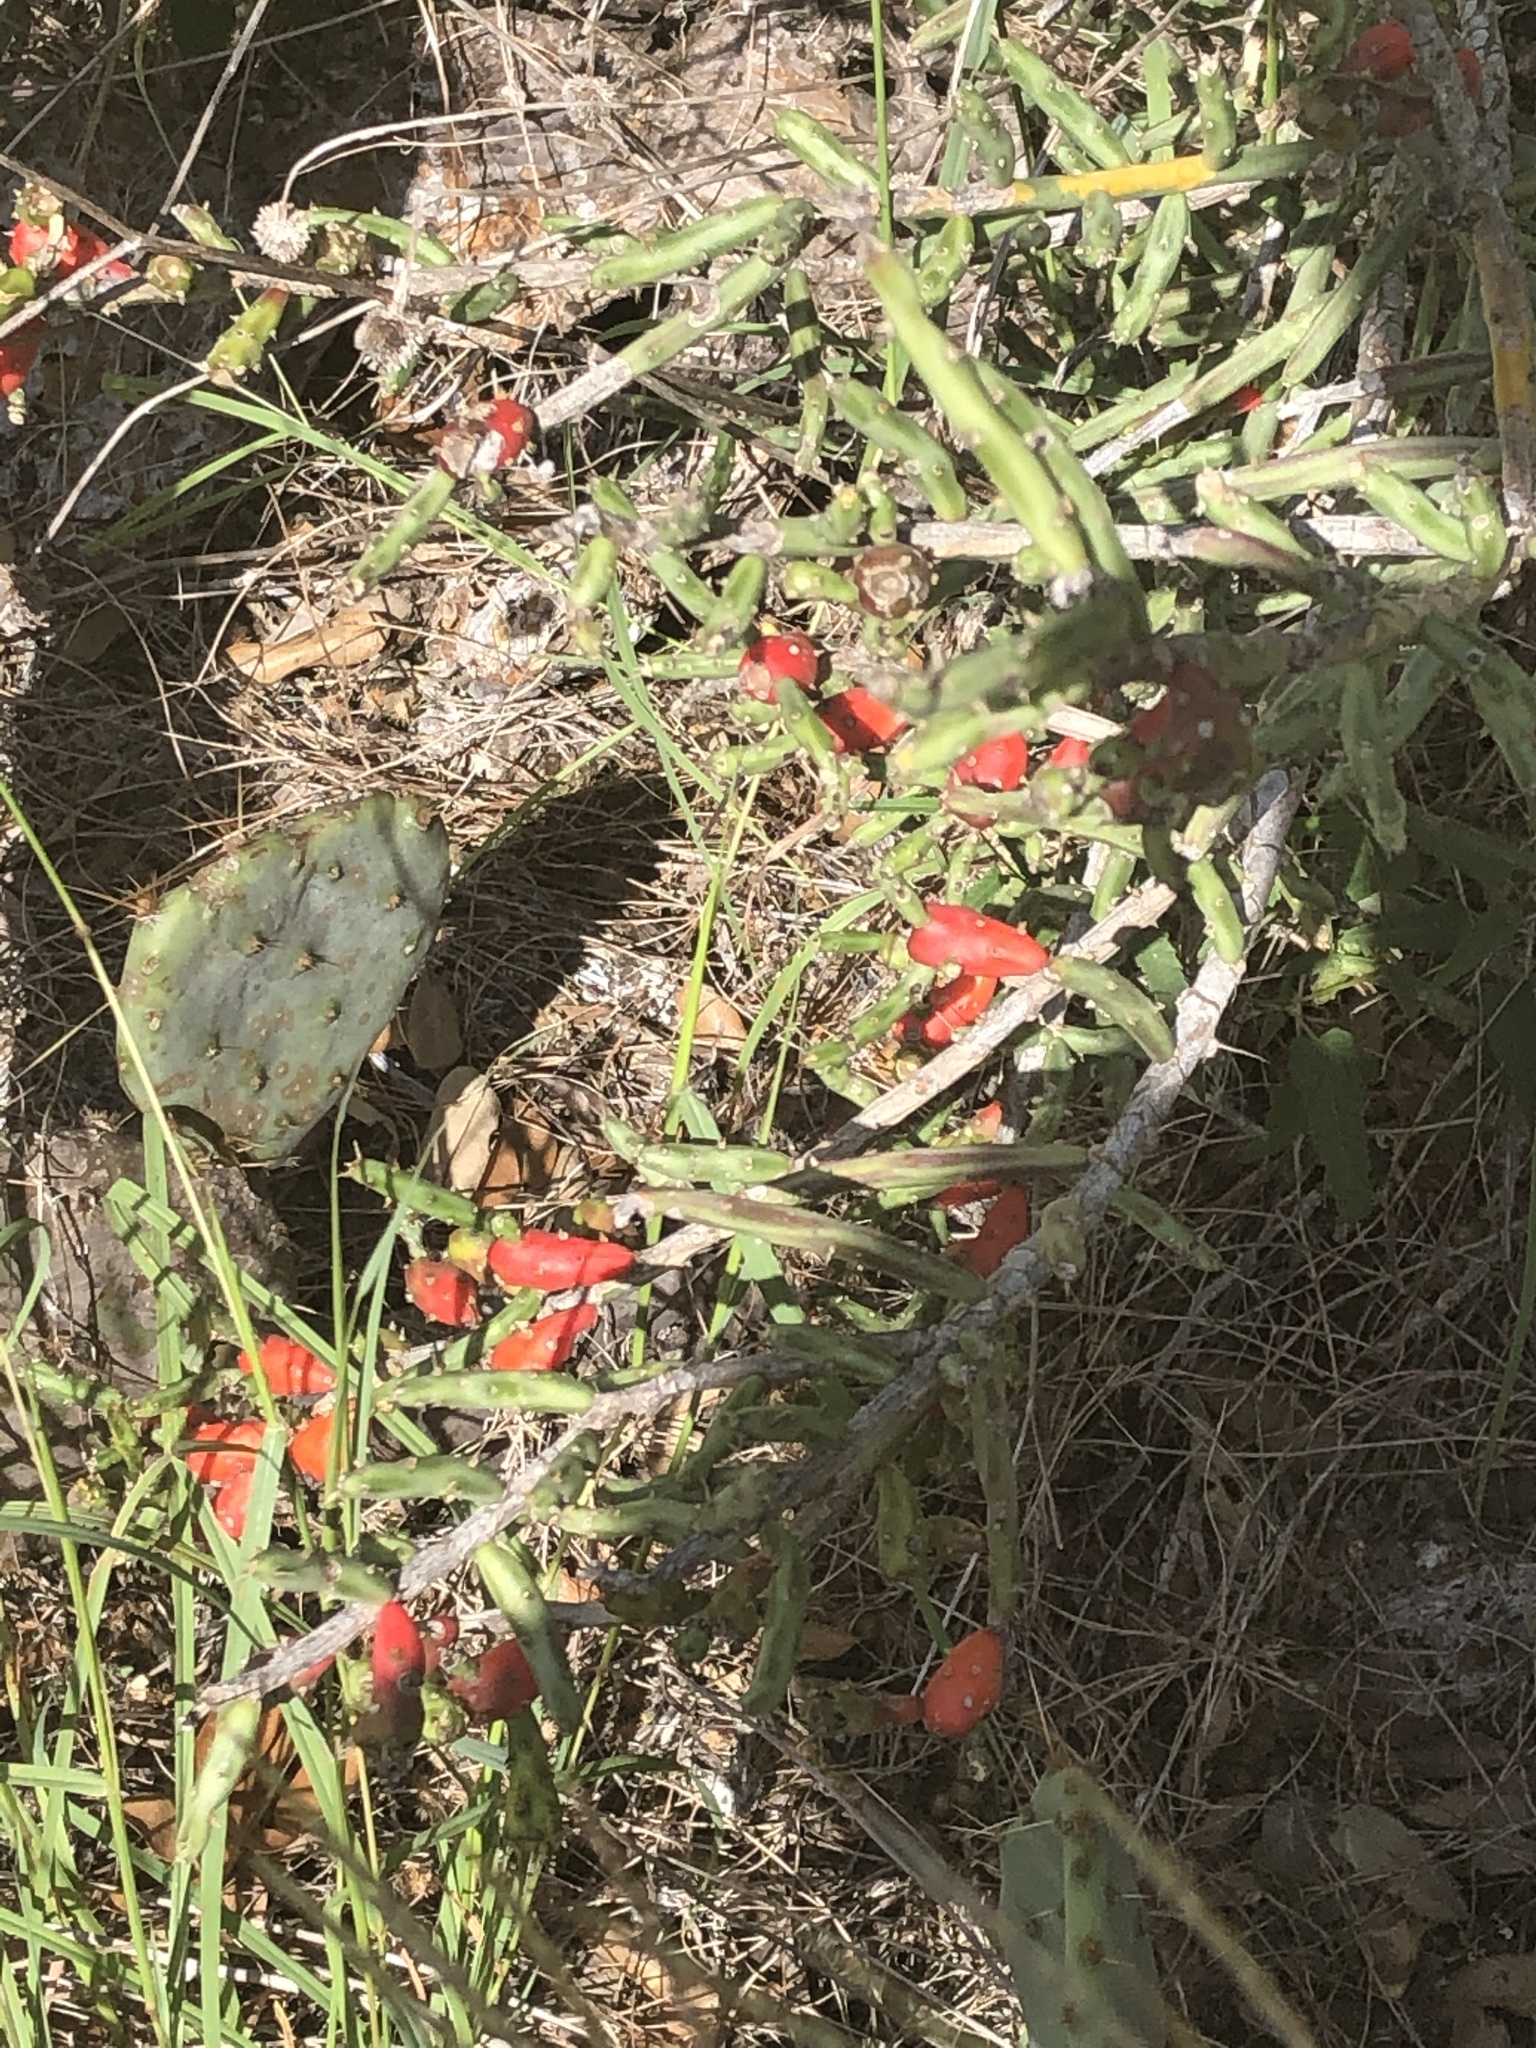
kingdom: Plantae
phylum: Tracheophyta
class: Magnoliopsida
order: Caryophyllales
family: Cactaceae
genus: Cylindropuntia
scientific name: Cylindropuntia leptocaulis
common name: Christmas cactus
